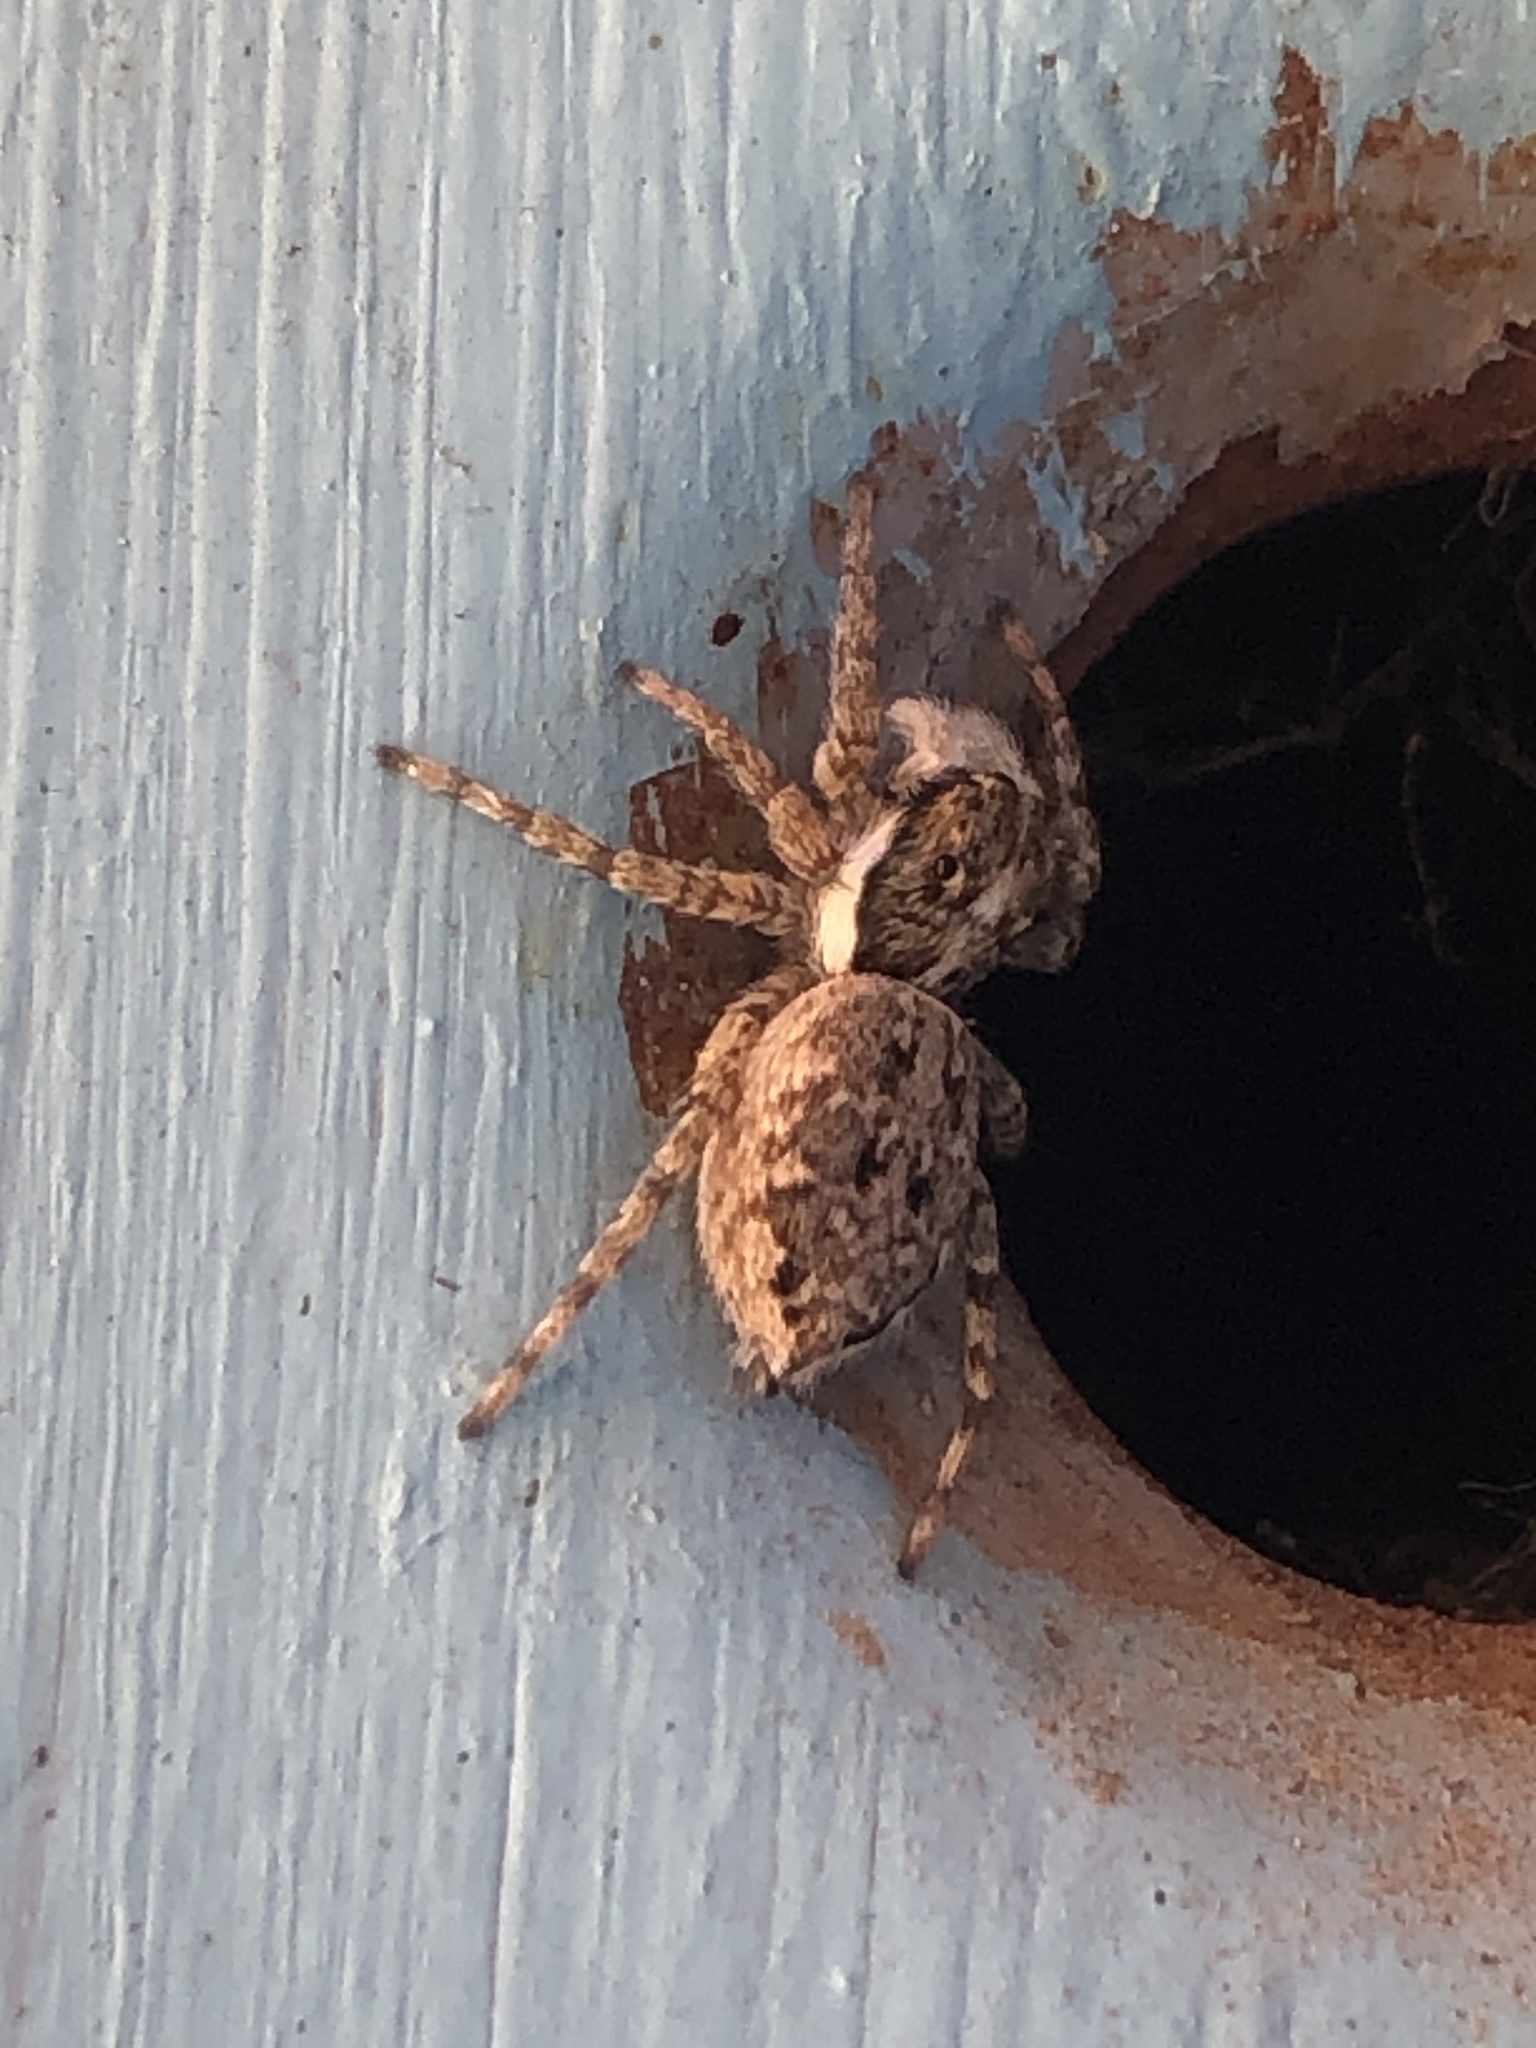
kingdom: Animalia
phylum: Arthropoda
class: Arachnida
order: Araneae
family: Salticidae
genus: Menemerus
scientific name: Menemerus semilimbatus
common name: Jumping spider
